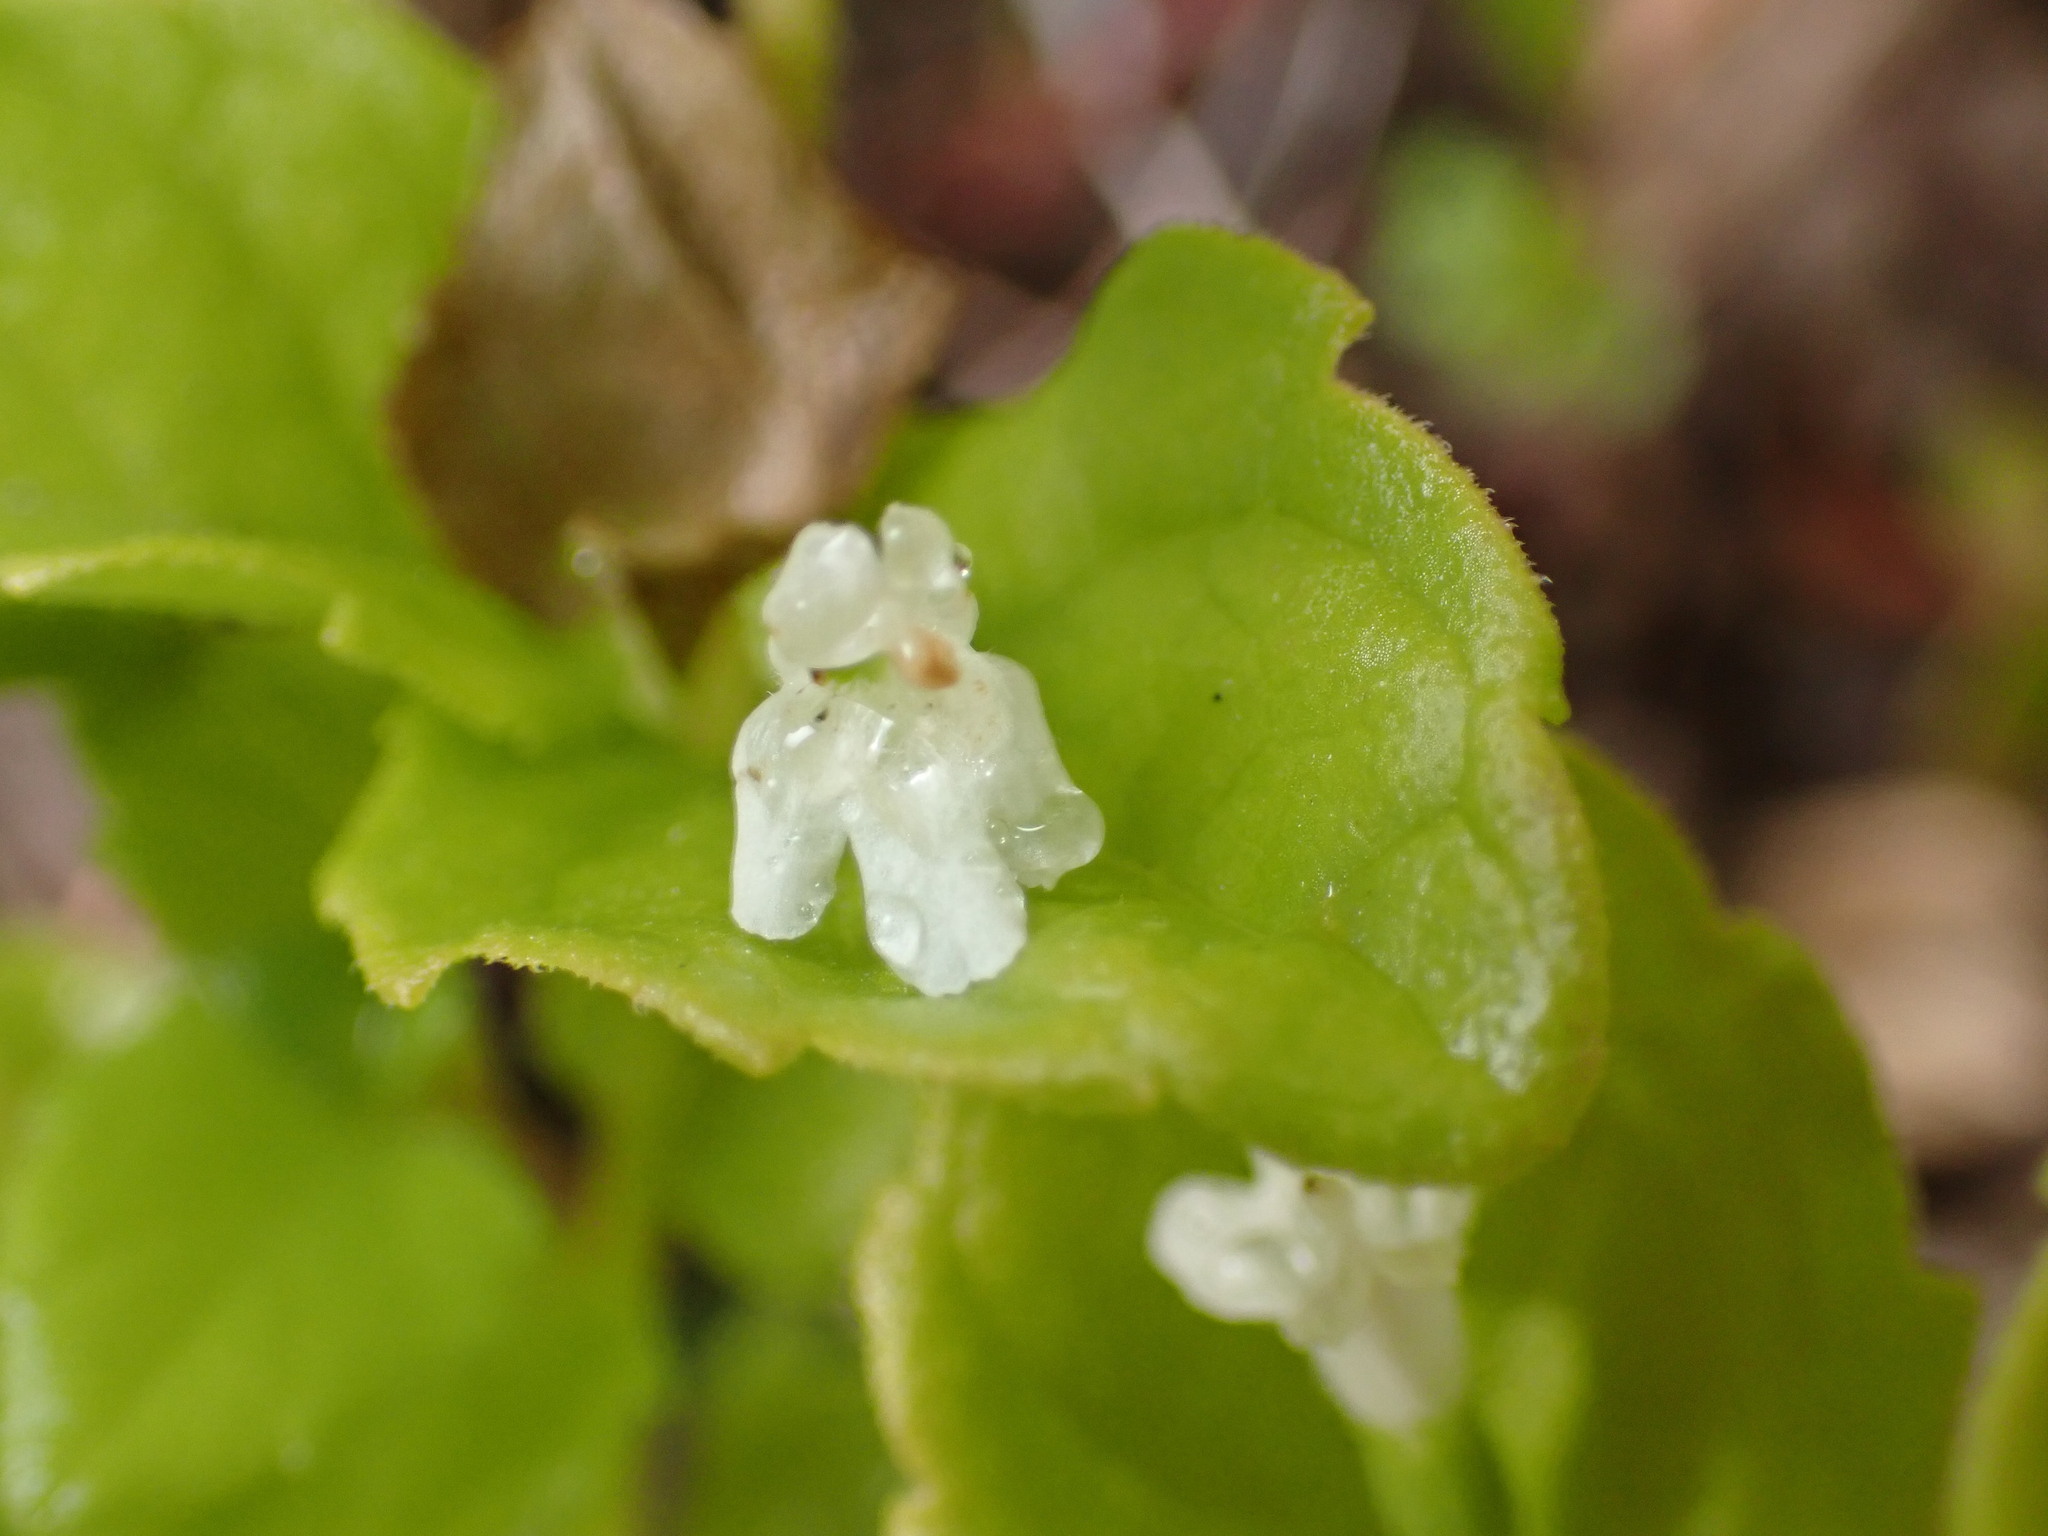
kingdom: Plantae
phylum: Tracheophyta
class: Magnoliopsida
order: Lamiales
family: Lamiaceae
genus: Micromeria
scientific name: Micromeria douglasii
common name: Yerba buena
